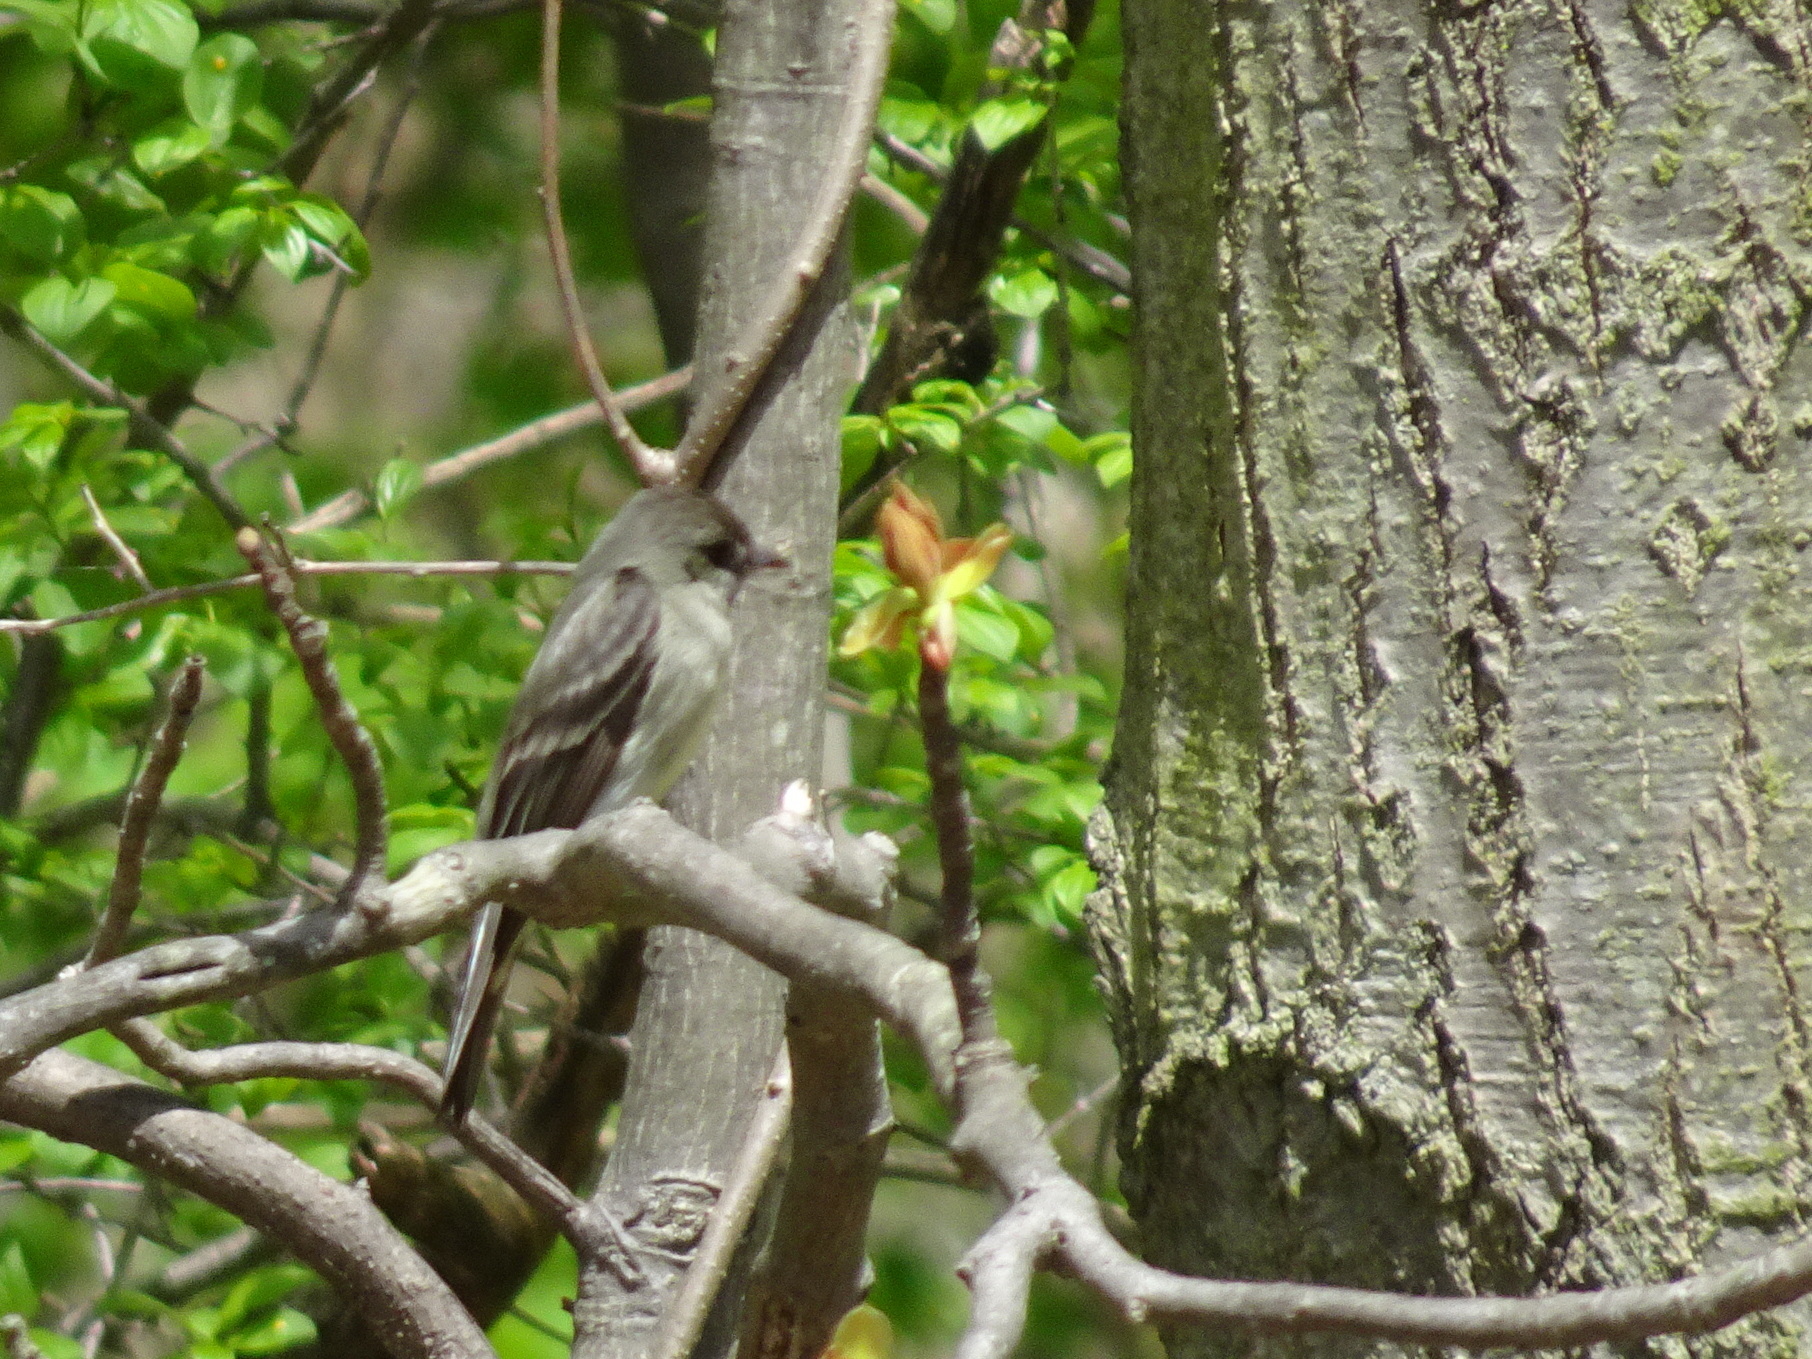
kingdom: Animalia
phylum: Chordata
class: Aves
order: Passeriformes
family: Tyrannidae
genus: Contopus
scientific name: Contopus virens
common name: Eastern wood-pewee
